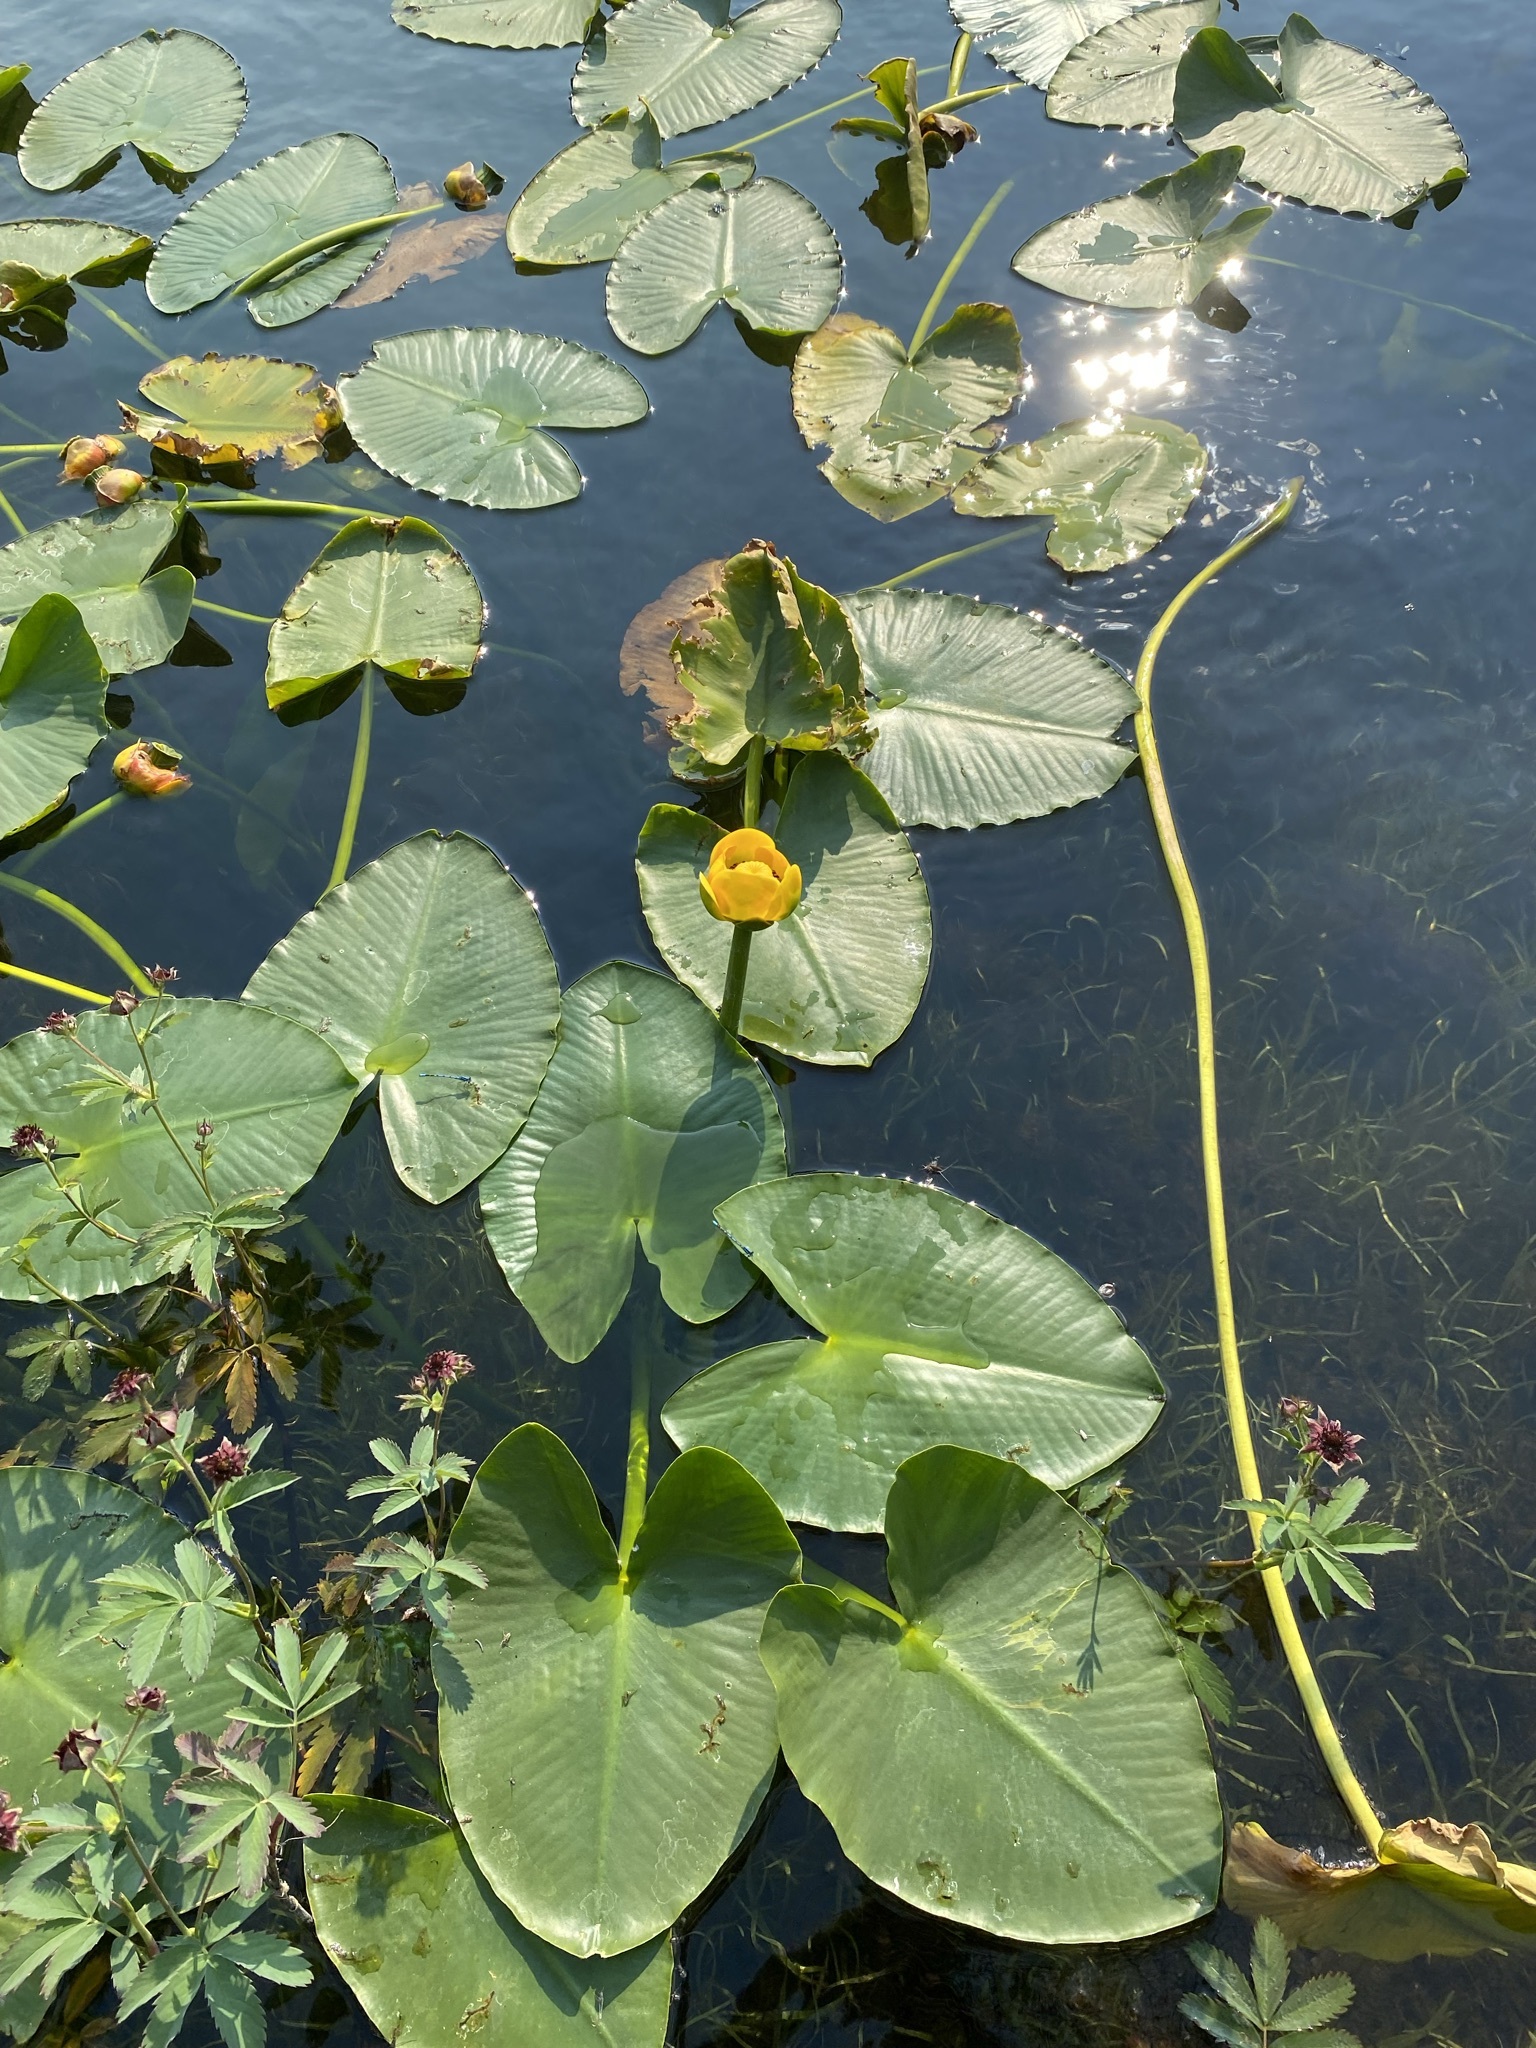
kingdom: Plantae
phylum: Tracheophyta
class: Magnoliopsida
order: Nymphaeales
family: Nymphaeaceae
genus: Nuphar
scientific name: Nuphar polysepala
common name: Rocky mountain cow-lily
